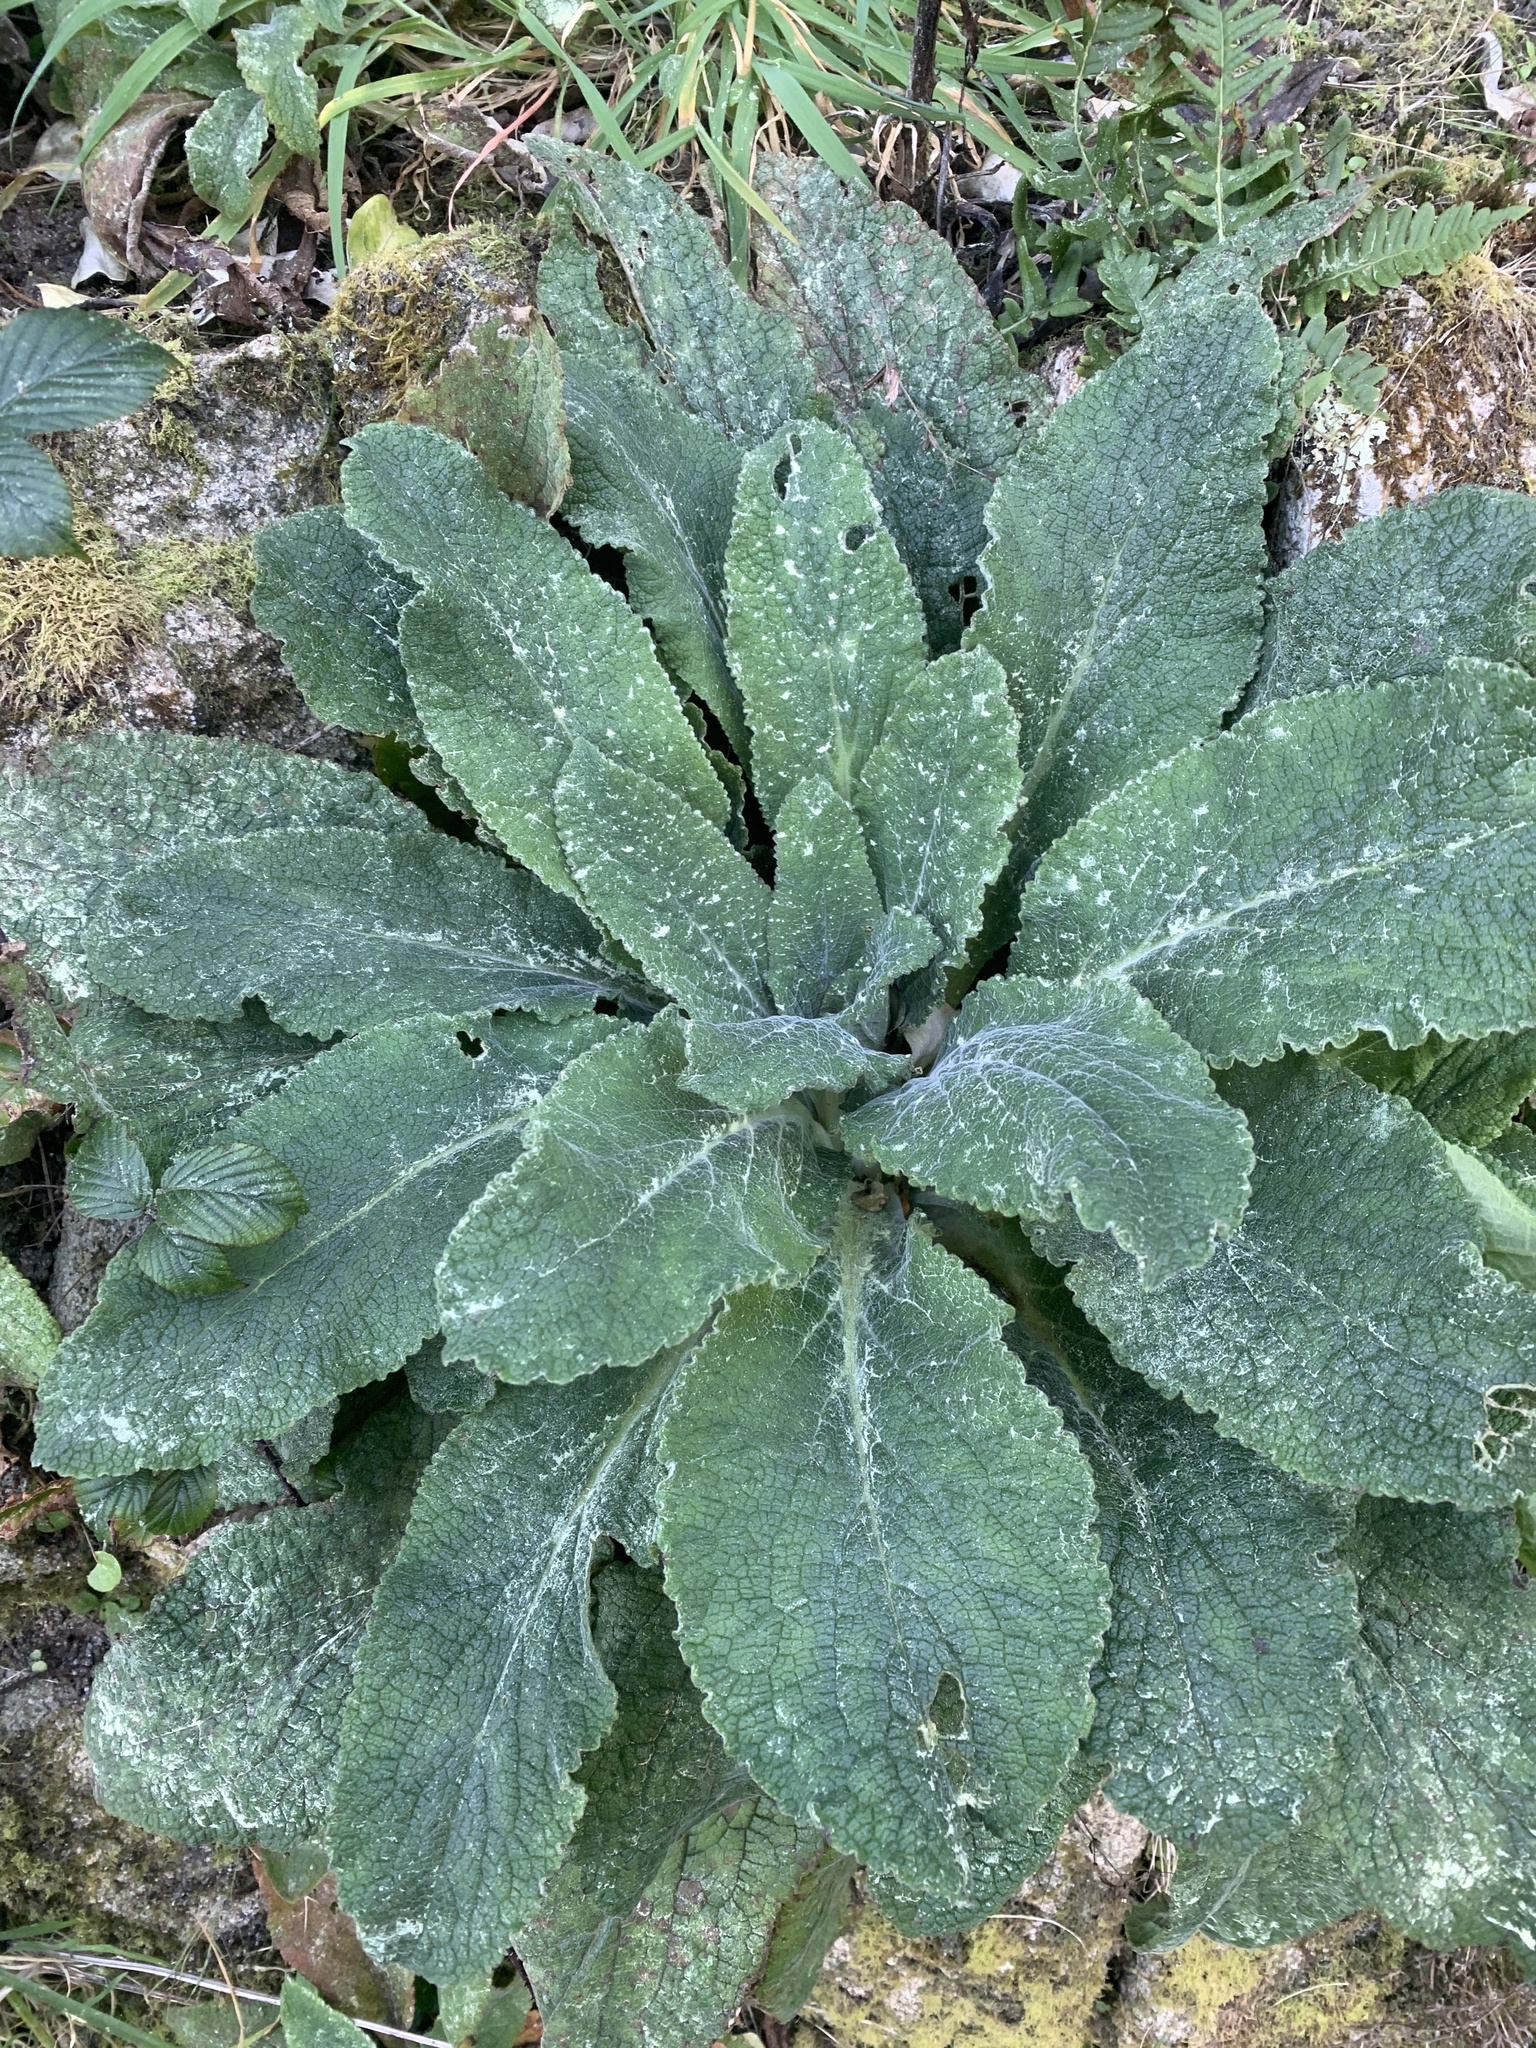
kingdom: Plantae
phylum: Tracheophyta
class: Magnoliopsida
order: Lamiales
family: Plantaginaceae
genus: Digitalis
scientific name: Digitalis purpurea
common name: Foxglove
